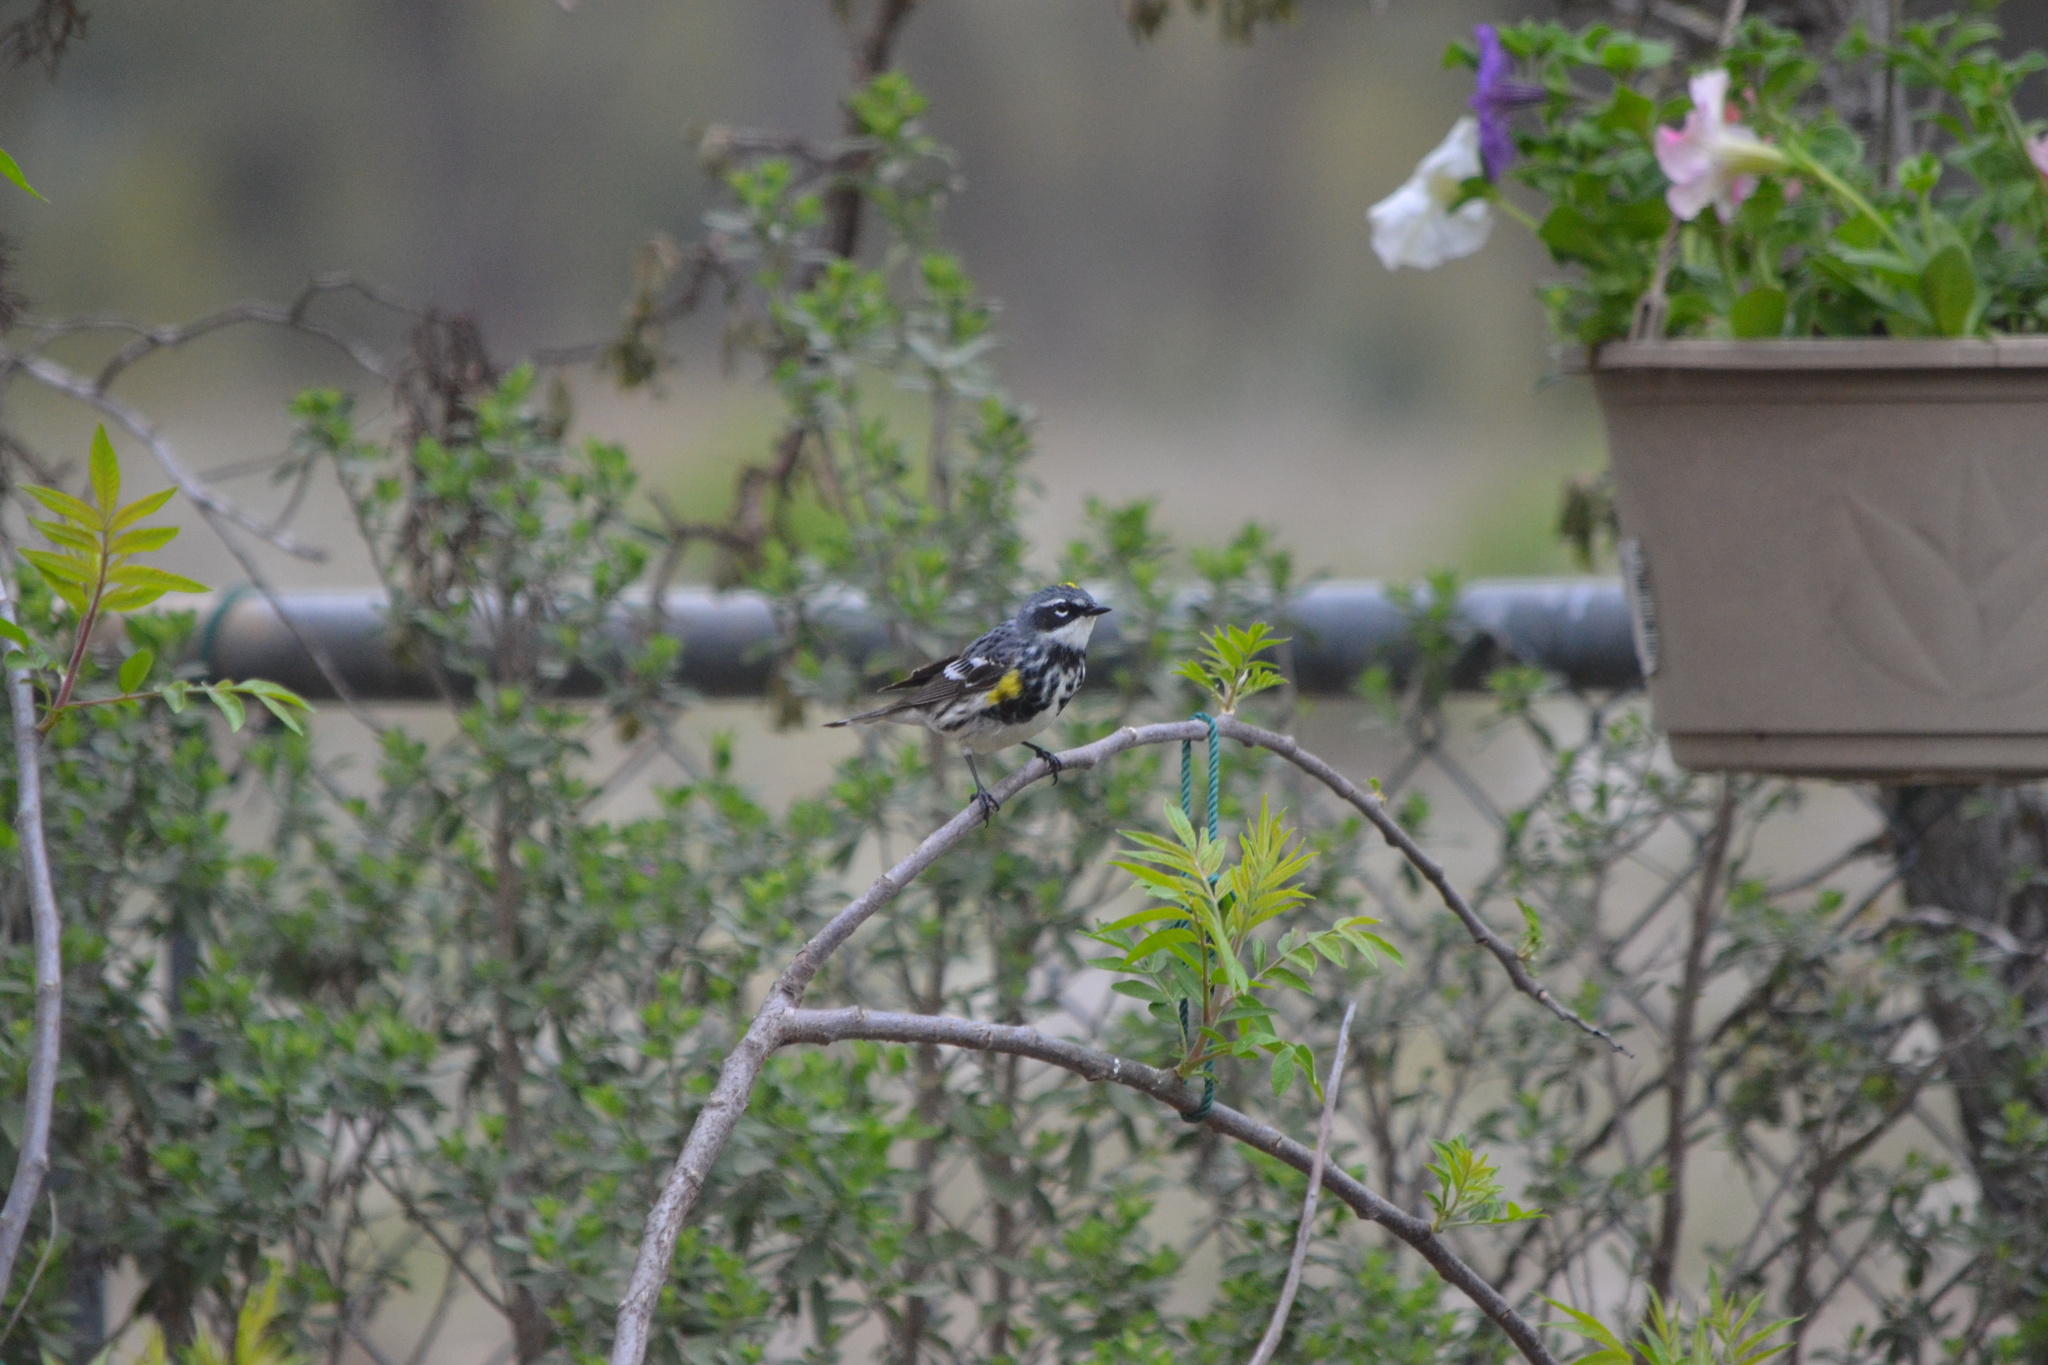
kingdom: Animalia
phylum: Chordata
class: Aves
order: Passeriformes
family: Parulidae
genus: Setophaga
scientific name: Setophaga coronata
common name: Myrtle warbler
